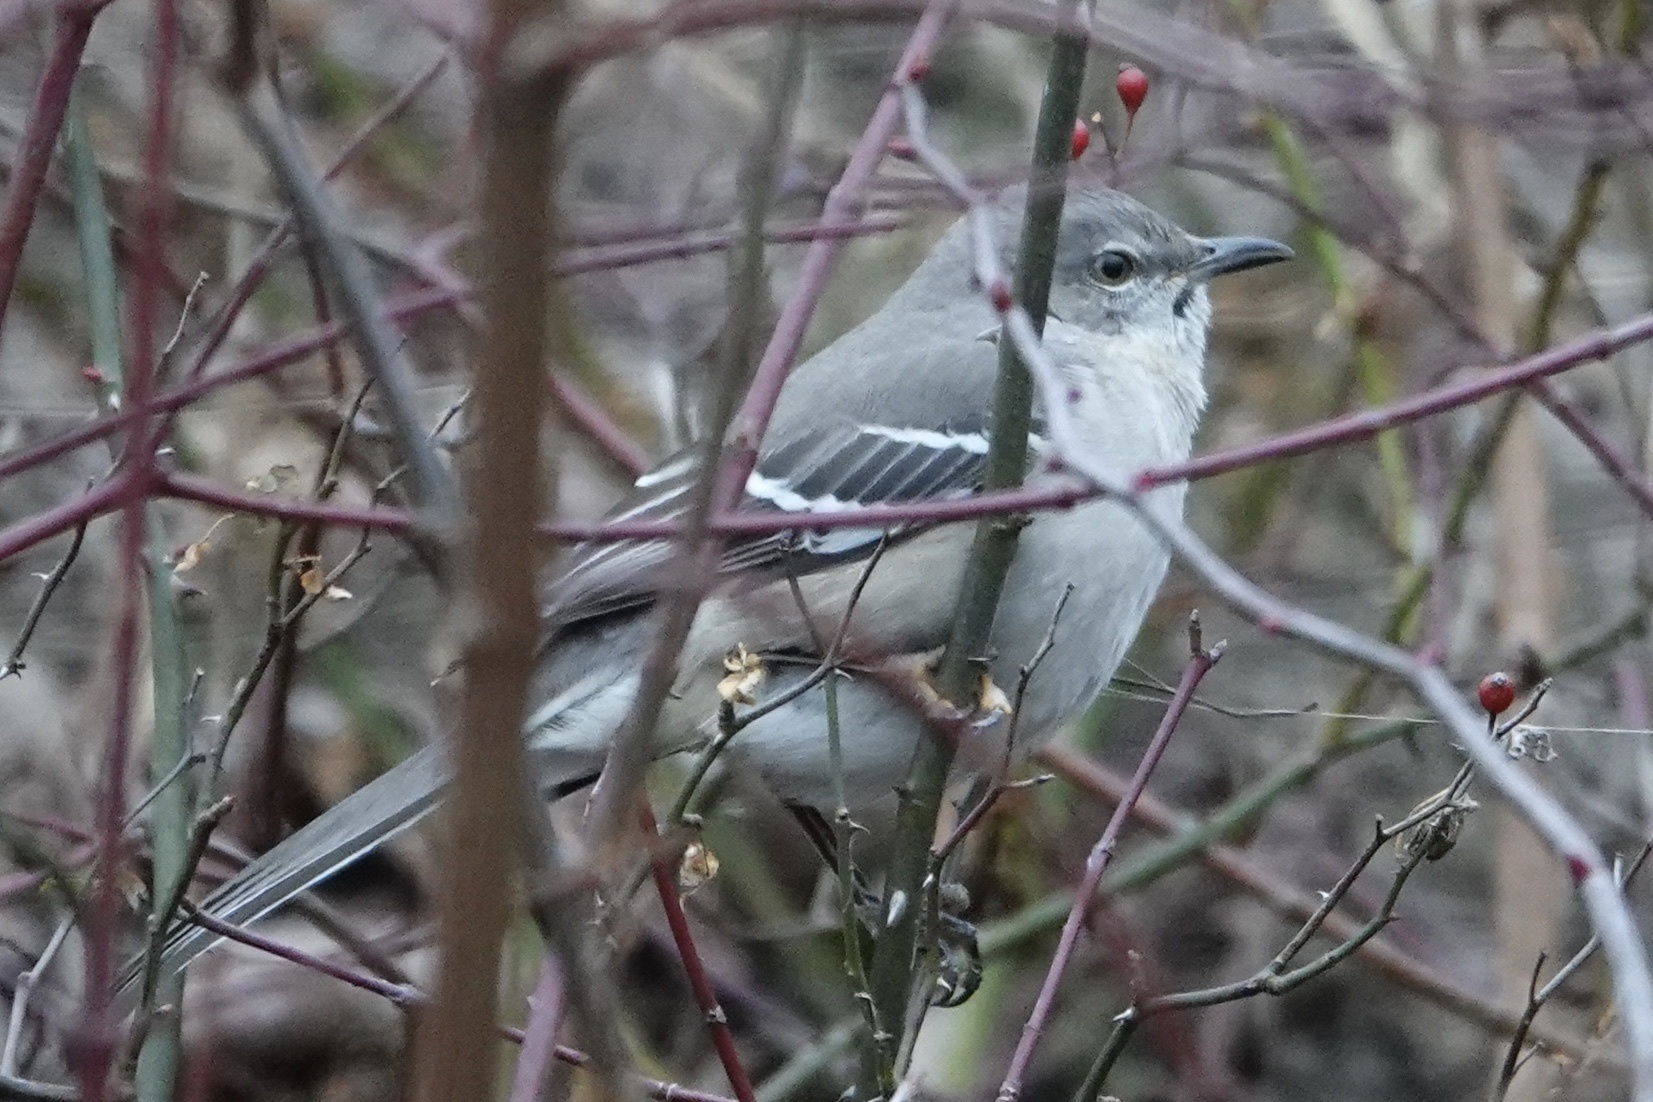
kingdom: Animalia
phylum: Chordata
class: Aves
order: Passeriformes
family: Mimidae
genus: Mimus
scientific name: Mimus polyglottos
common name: Northern mockingbird
